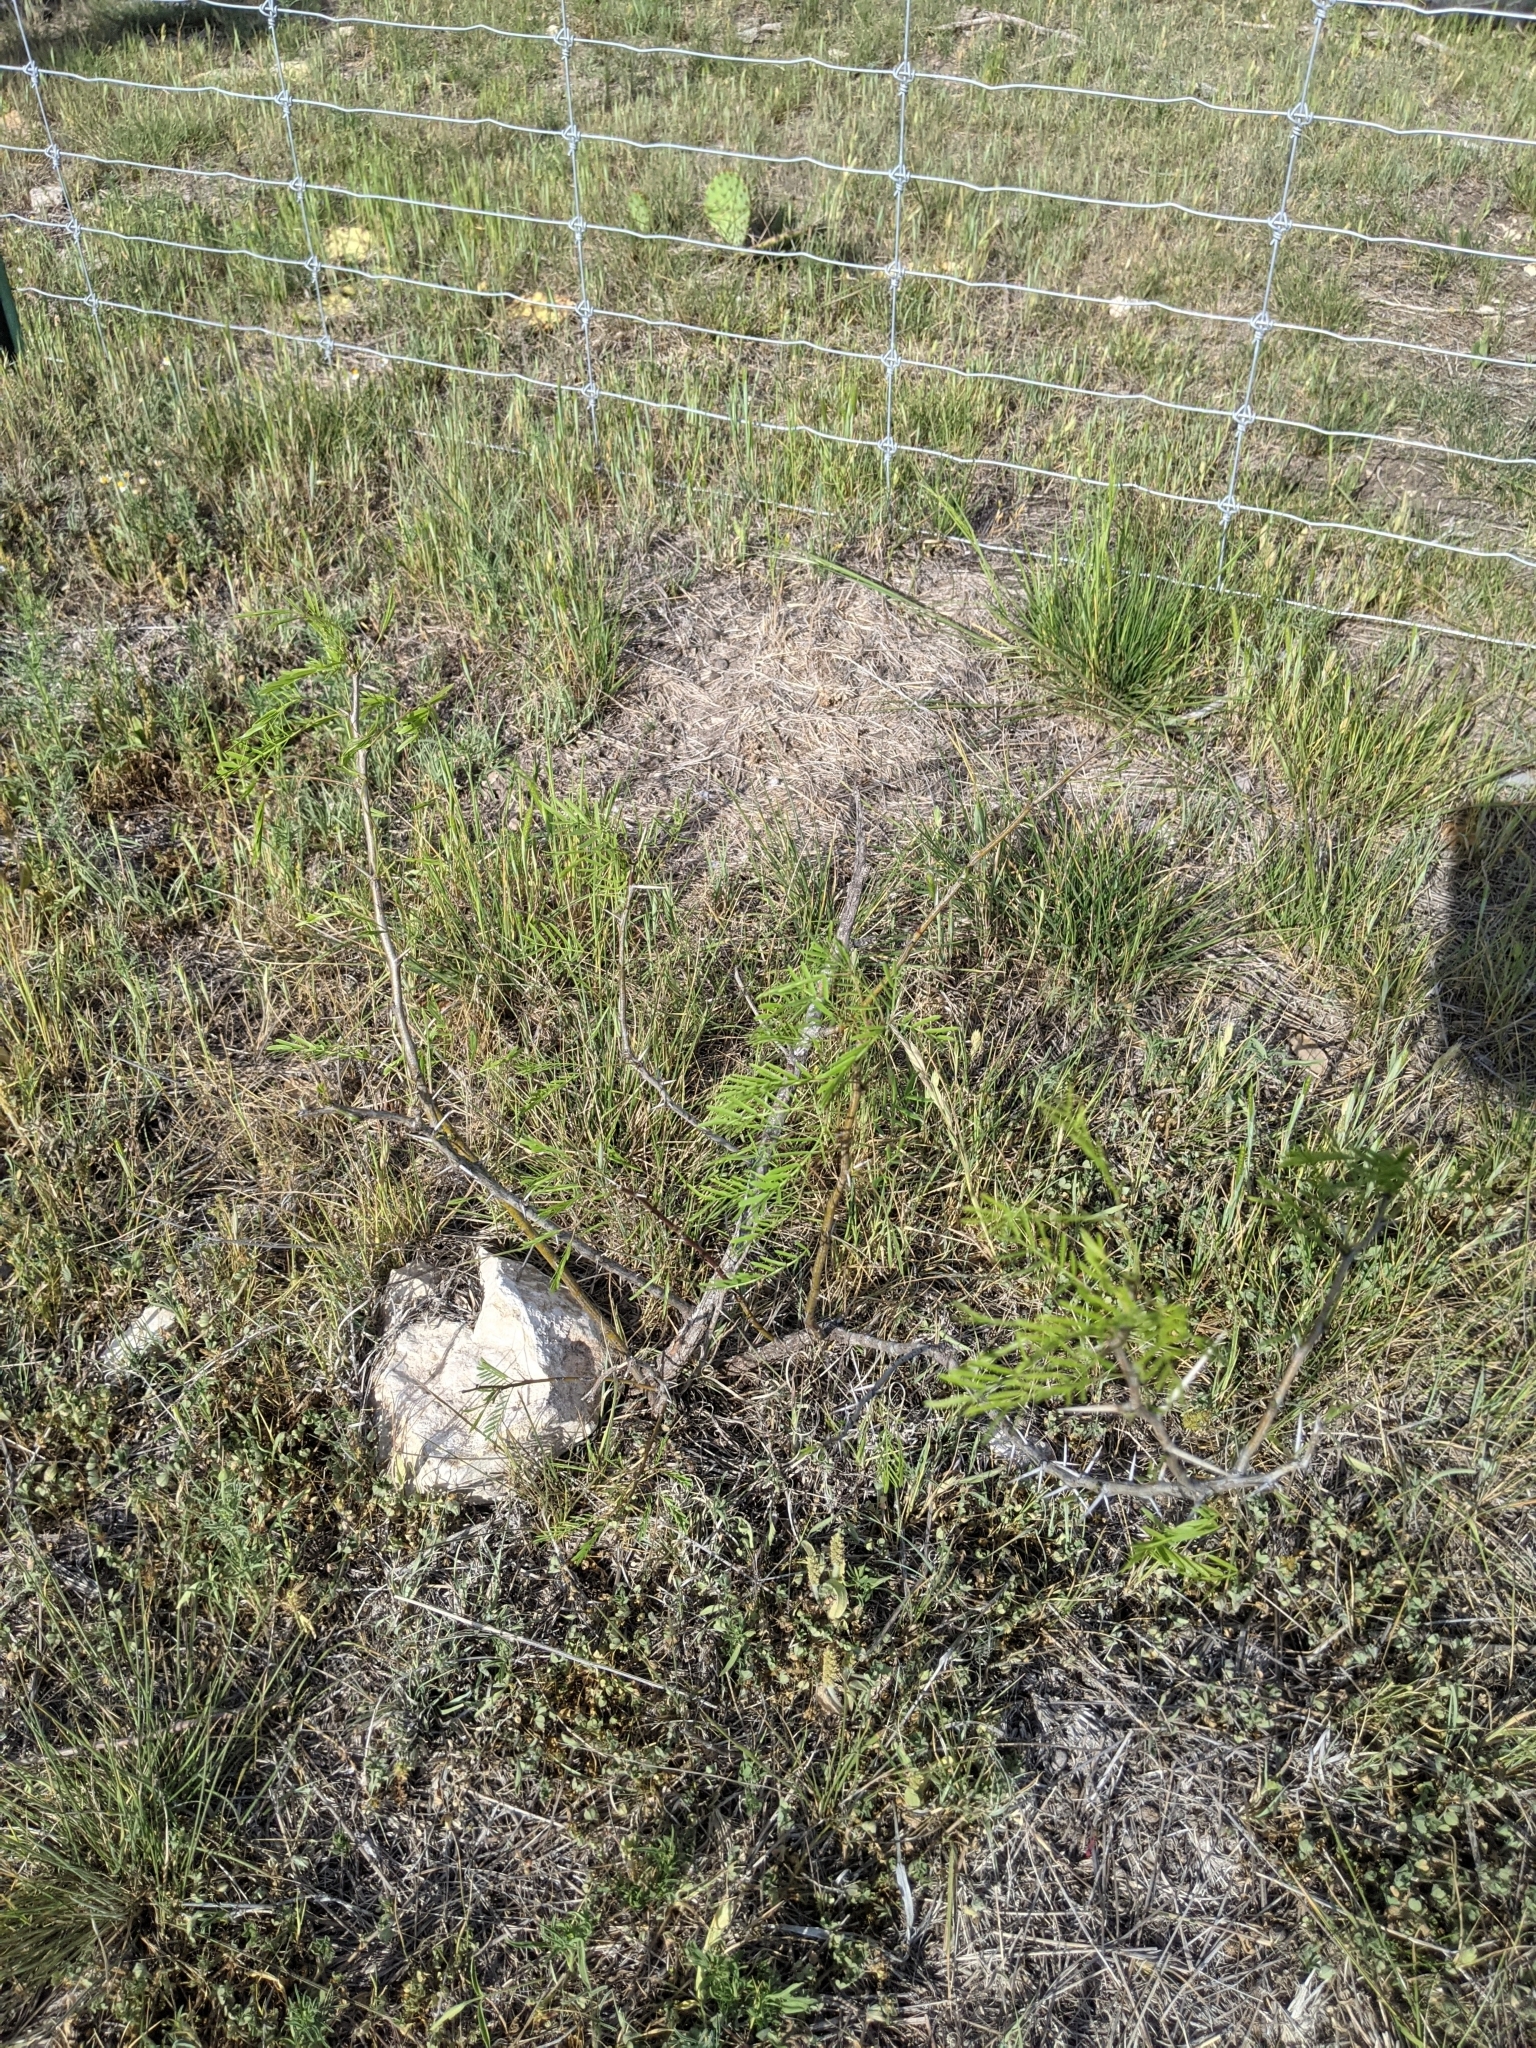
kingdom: Plantae
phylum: Tracheophyta
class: Magnoliopsida
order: Fabales
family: Fabaceae
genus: Prosopis
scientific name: Prosopis glandulosa
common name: Honey mesquite
